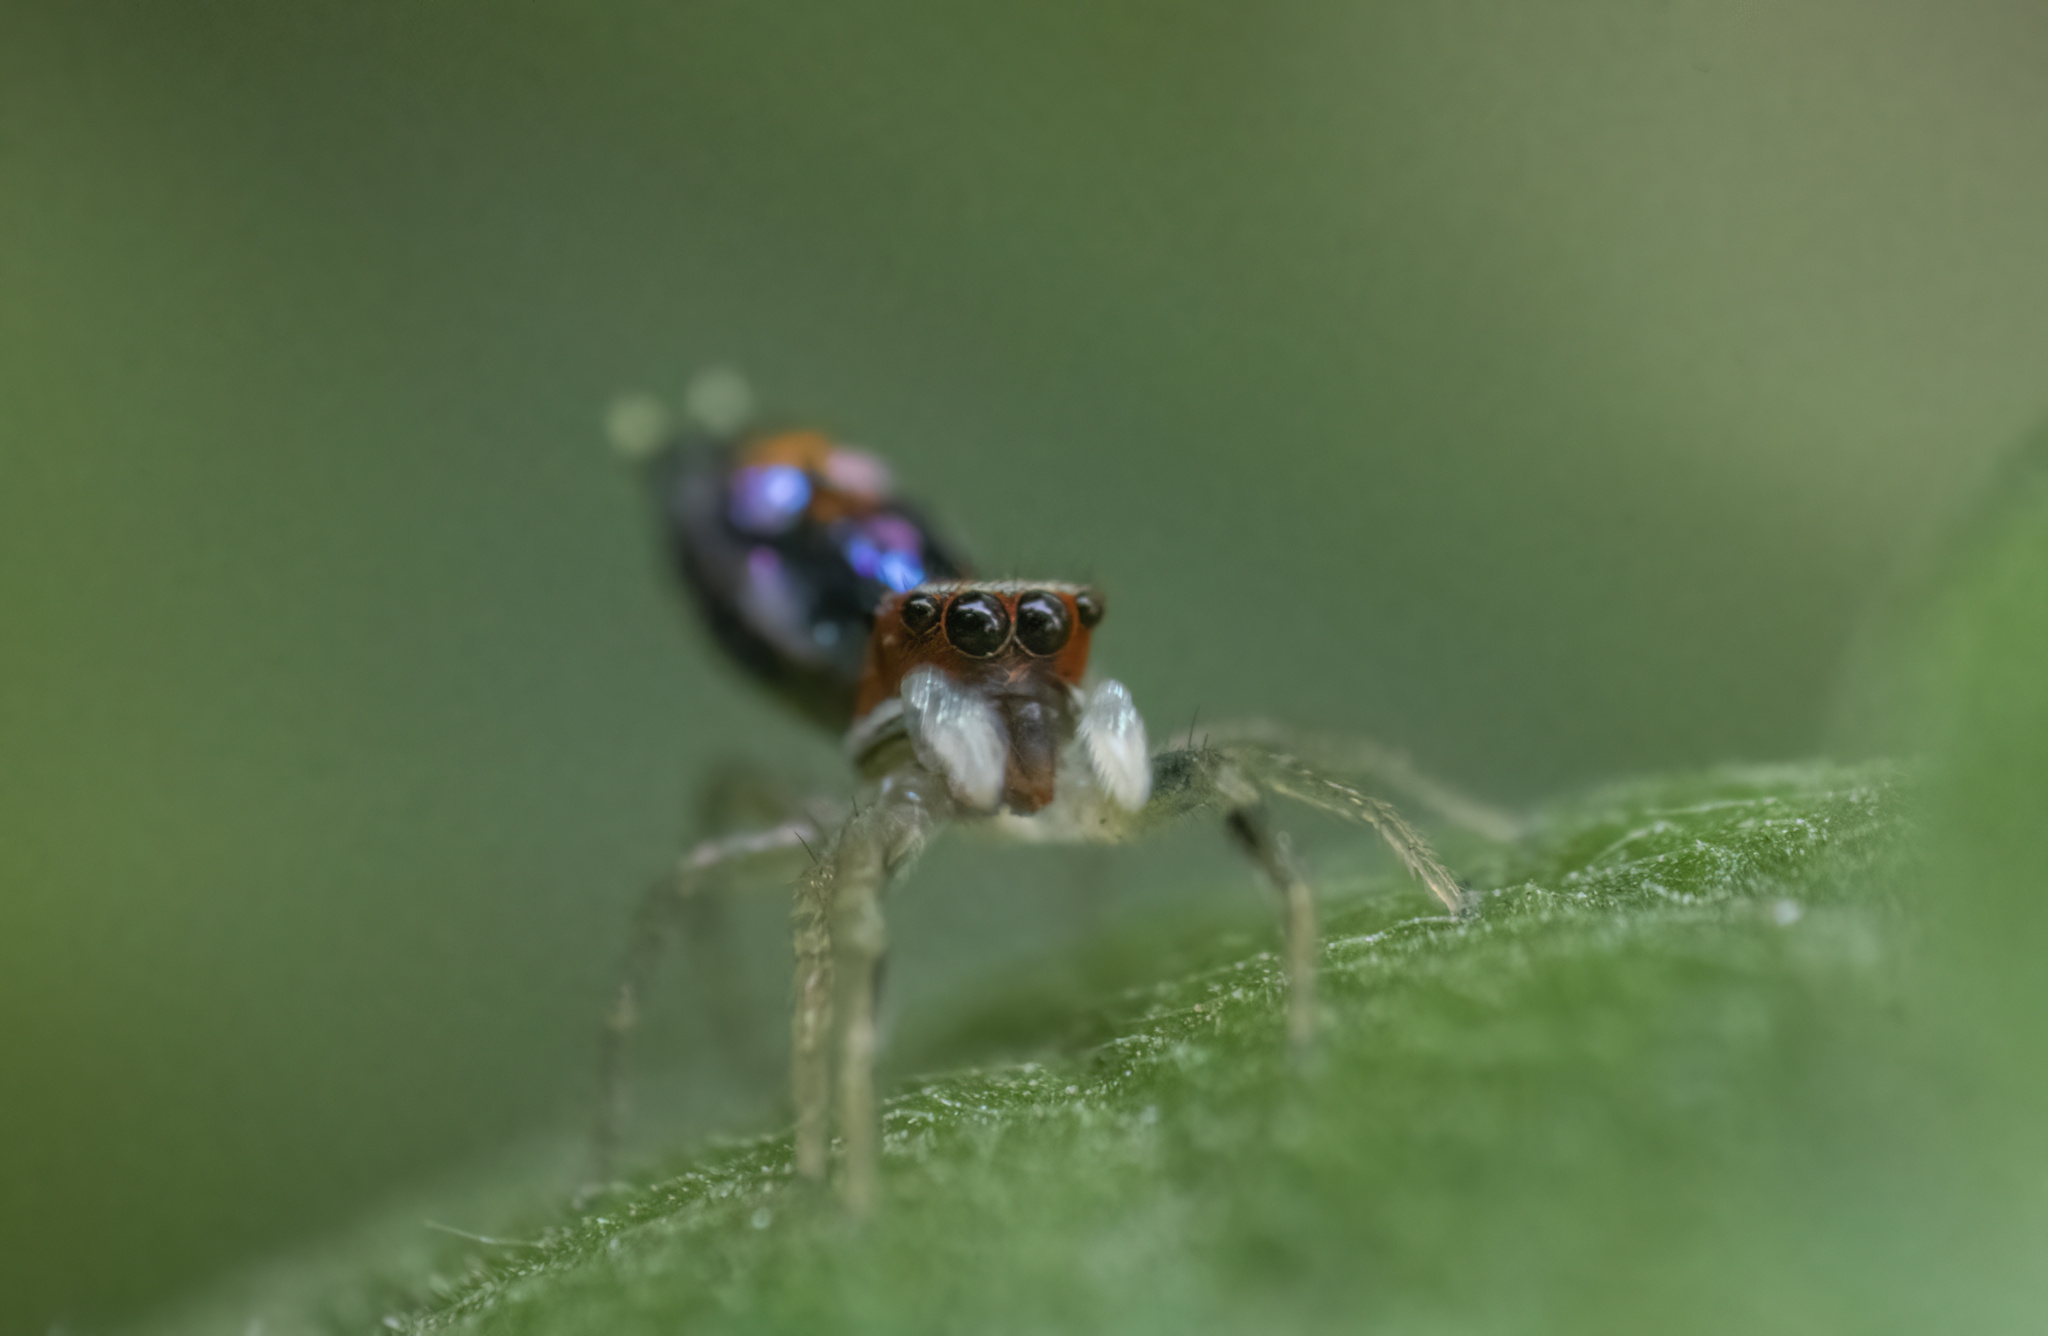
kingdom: Animalia
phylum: Arthropoda
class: Arachnida
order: Araneae
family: Salticidae
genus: Chrysilla
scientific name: Chrysilla volupe
